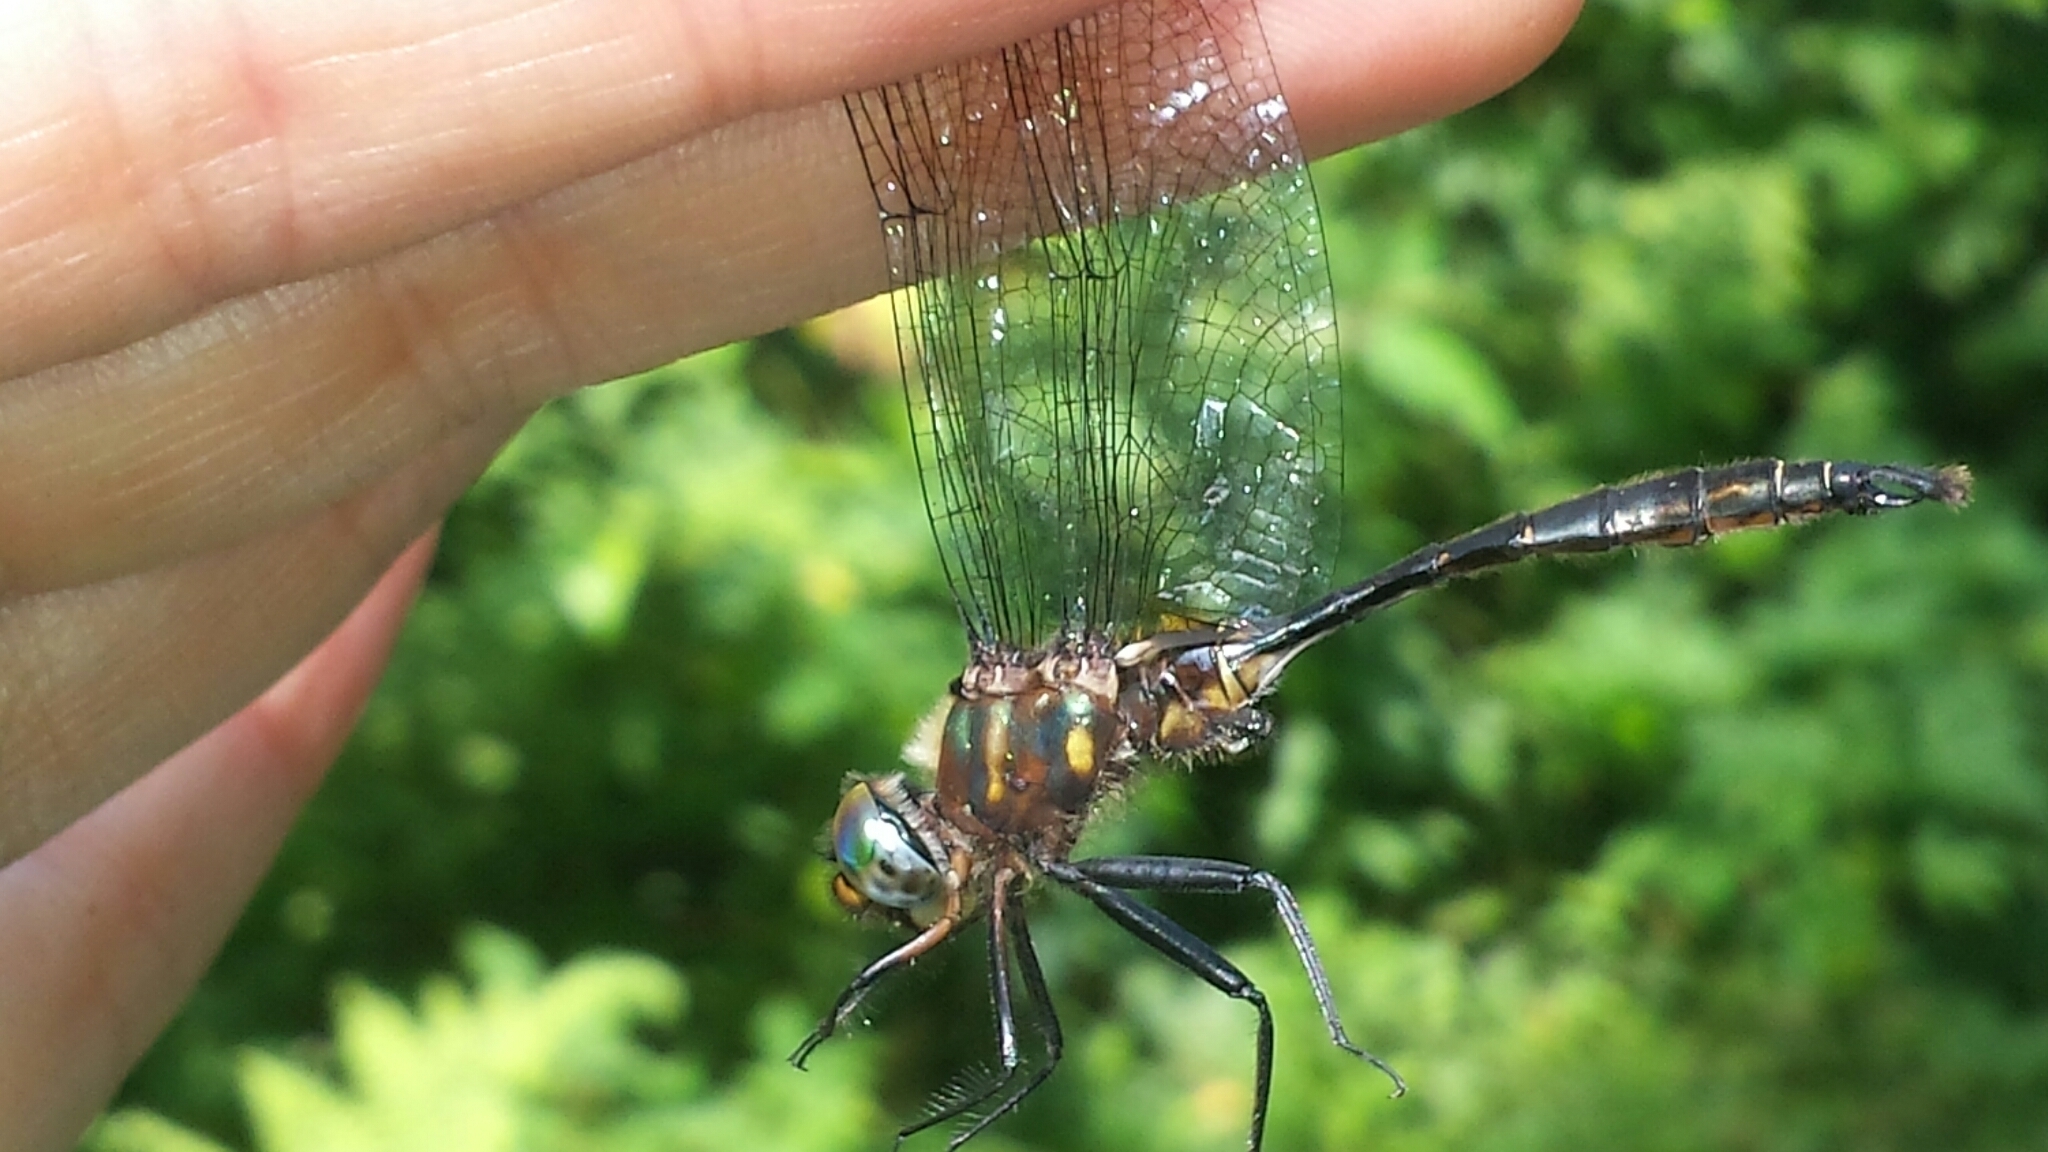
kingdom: Animalia
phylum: Arthropoda
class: Insecta
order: Odonata
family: Corduliidae
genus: Somatochlora
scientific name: Somatochlora walshii
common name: Brush-tipped emerald
